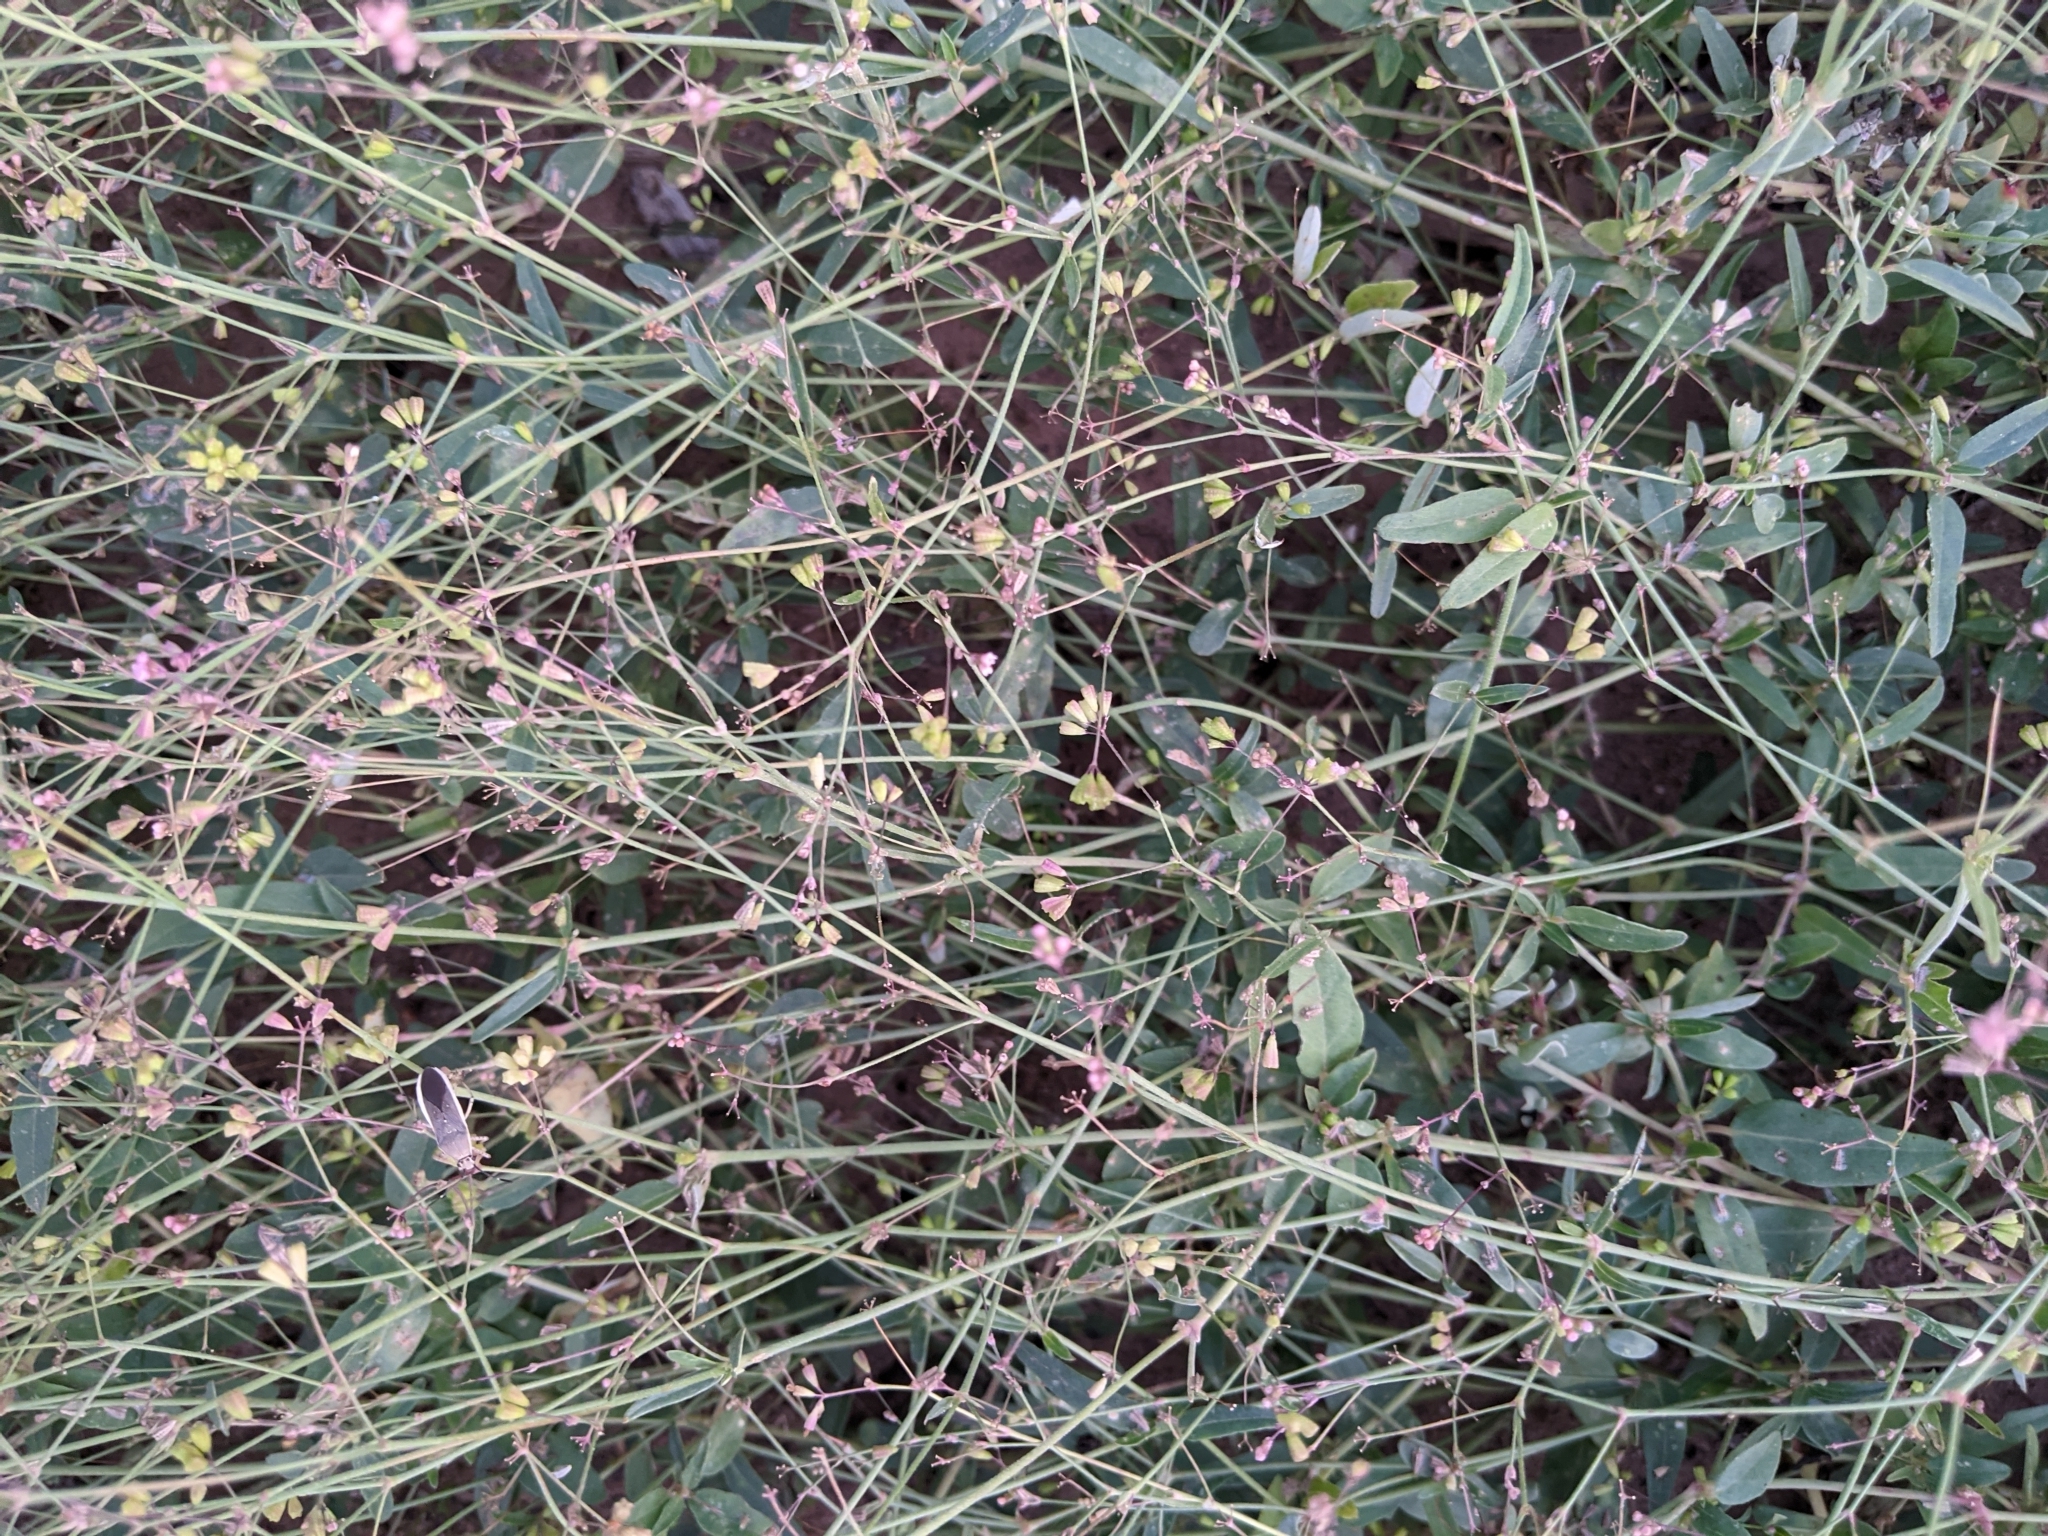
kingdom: Plantae
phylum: Tracheophyta
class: Magnoliopsida
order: Caryophyllales
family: Nyctaginaceae
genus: Boerhavia
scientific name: Boerhavia erecta
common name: Erect spiderling
